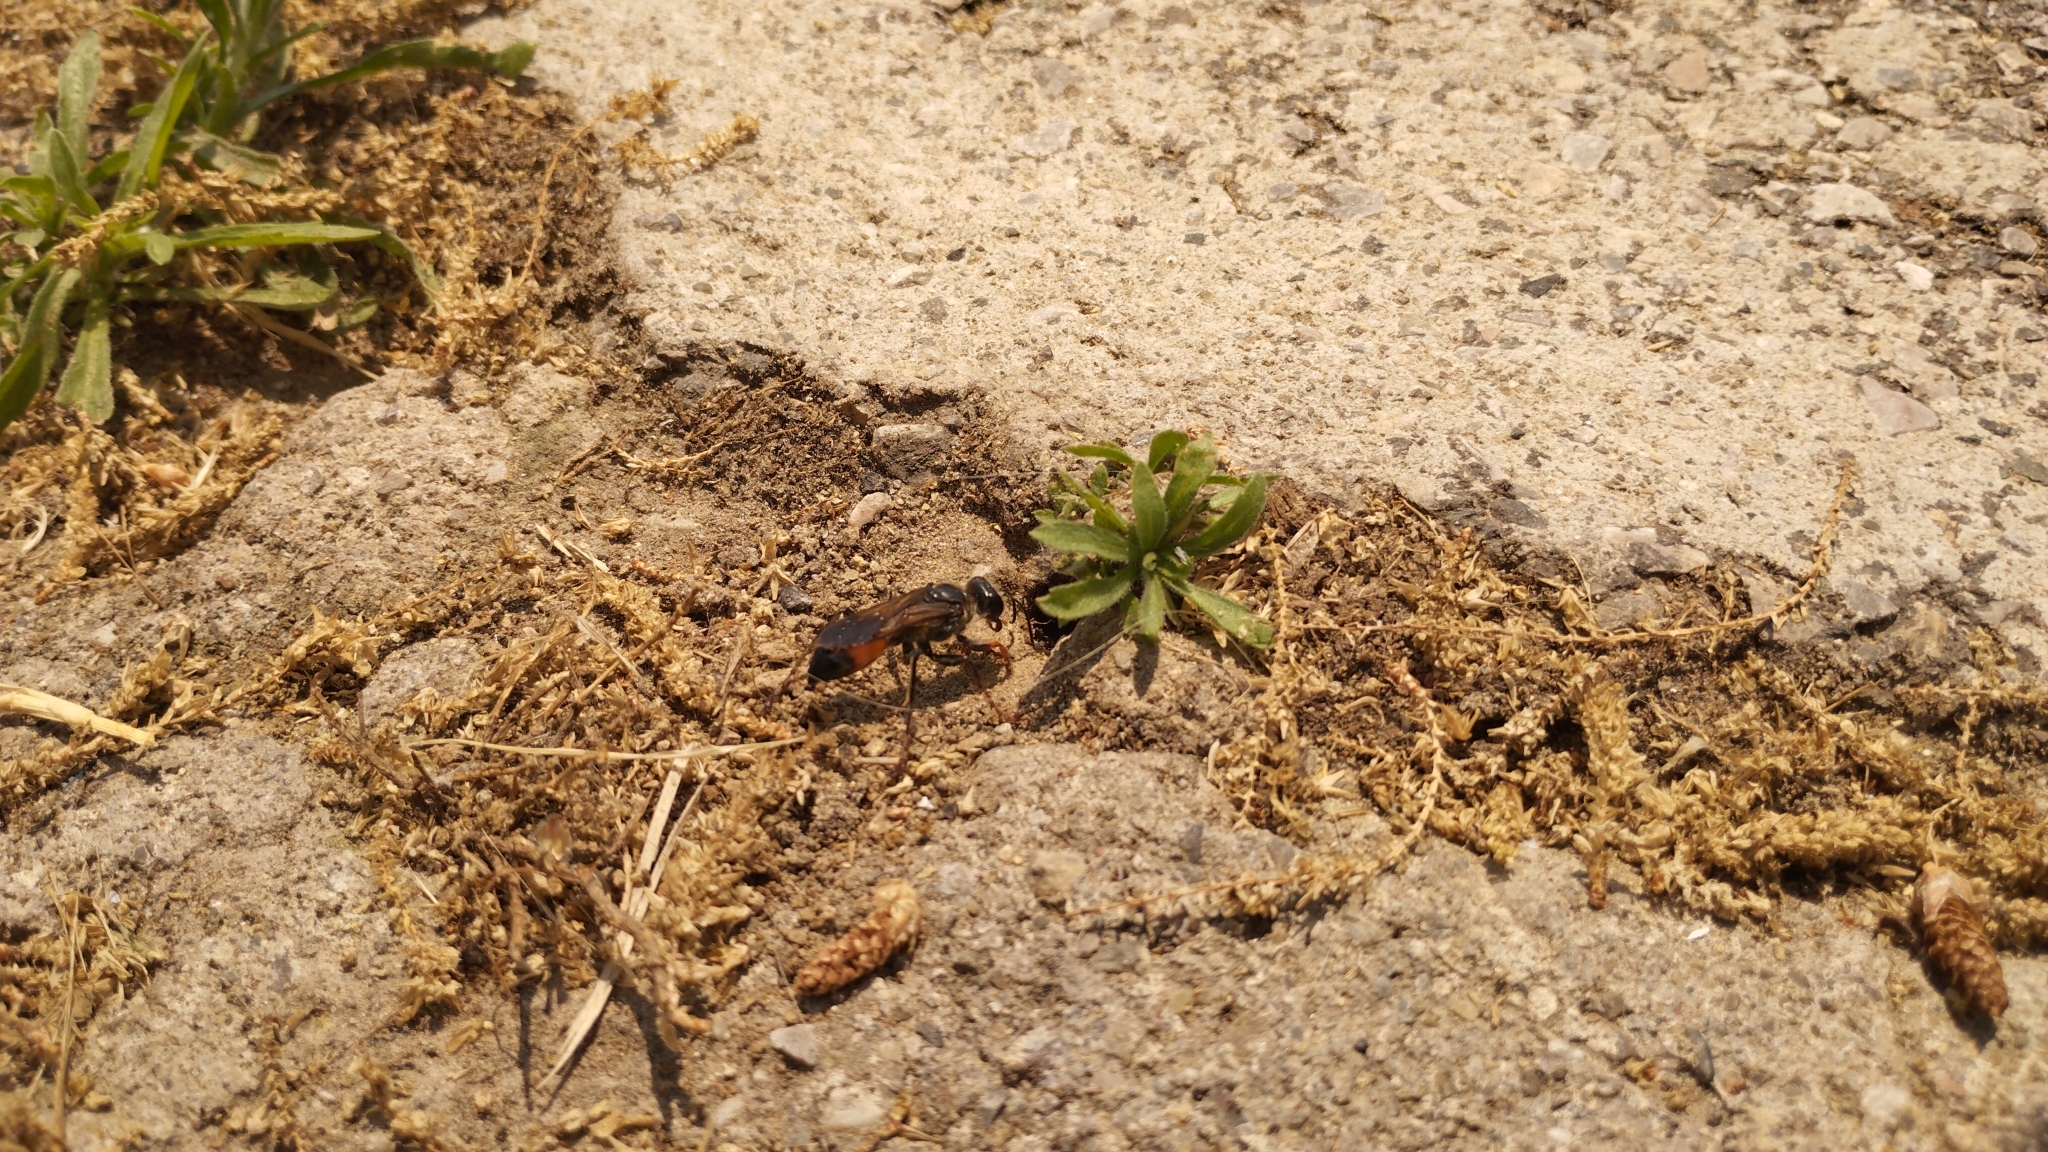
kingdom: Animalia
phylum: Arthropoda
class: Insecta
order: Hymenoptera
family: Sphecidae
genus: Sphex
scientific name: Sphex funerarius
